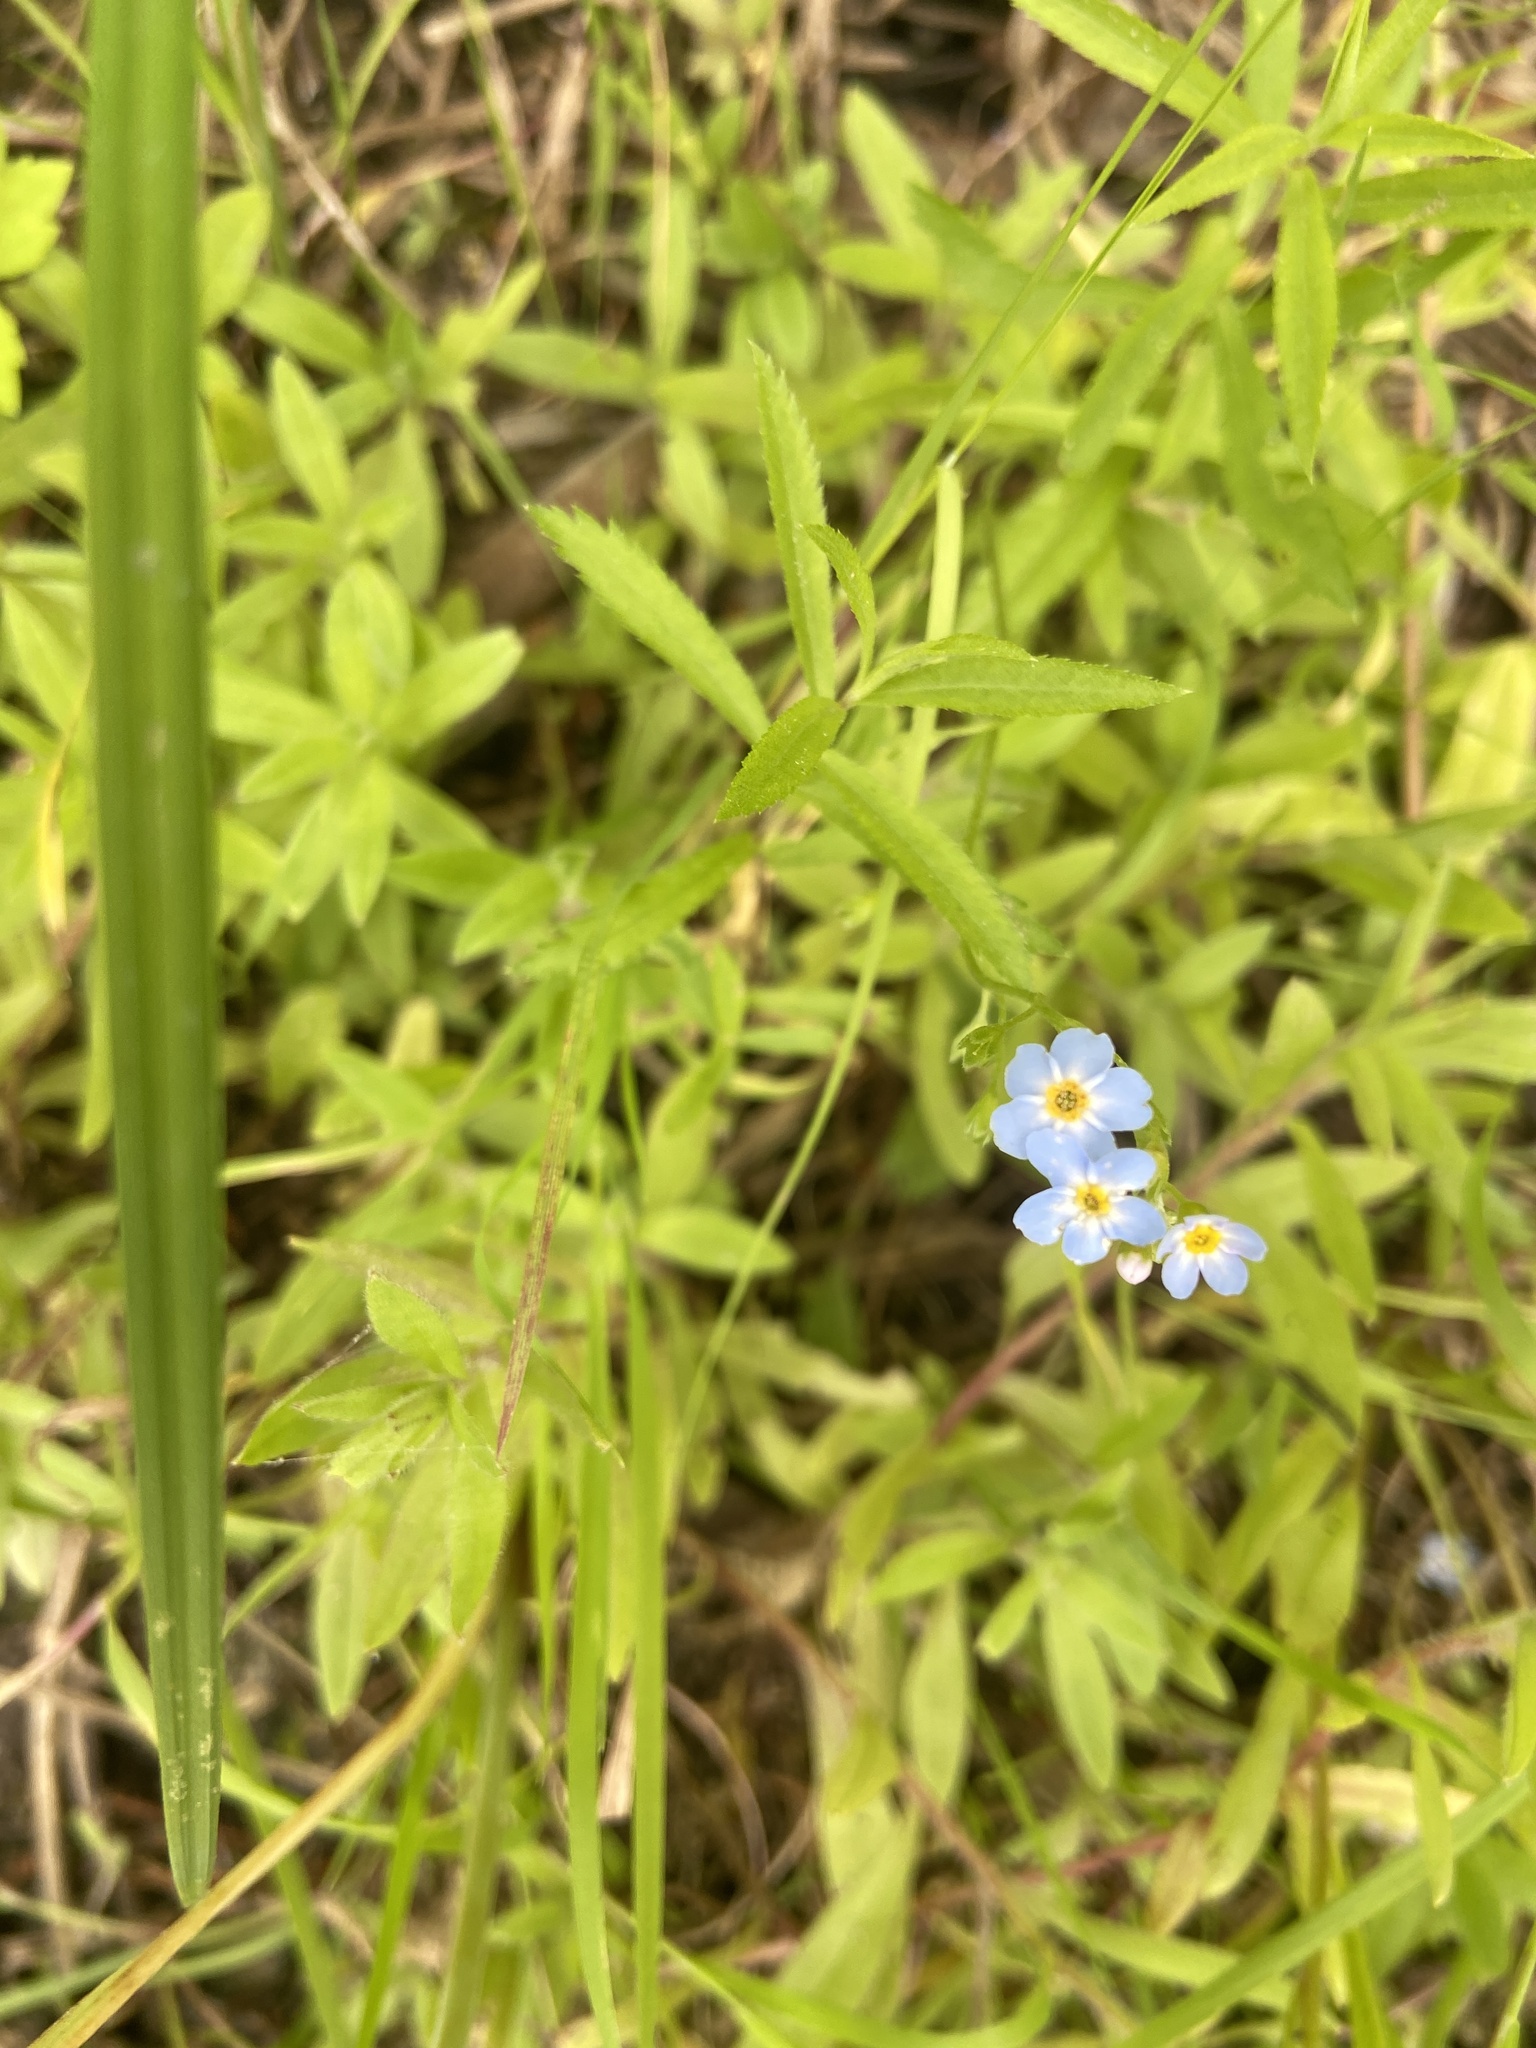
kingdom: Plantae
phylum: Tracheophyta
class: Magnoliopsida
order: Boraginales
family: Boraginaceae
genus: Myosotis
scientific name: Myosotis scorpioides
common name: Water forget-me-not
